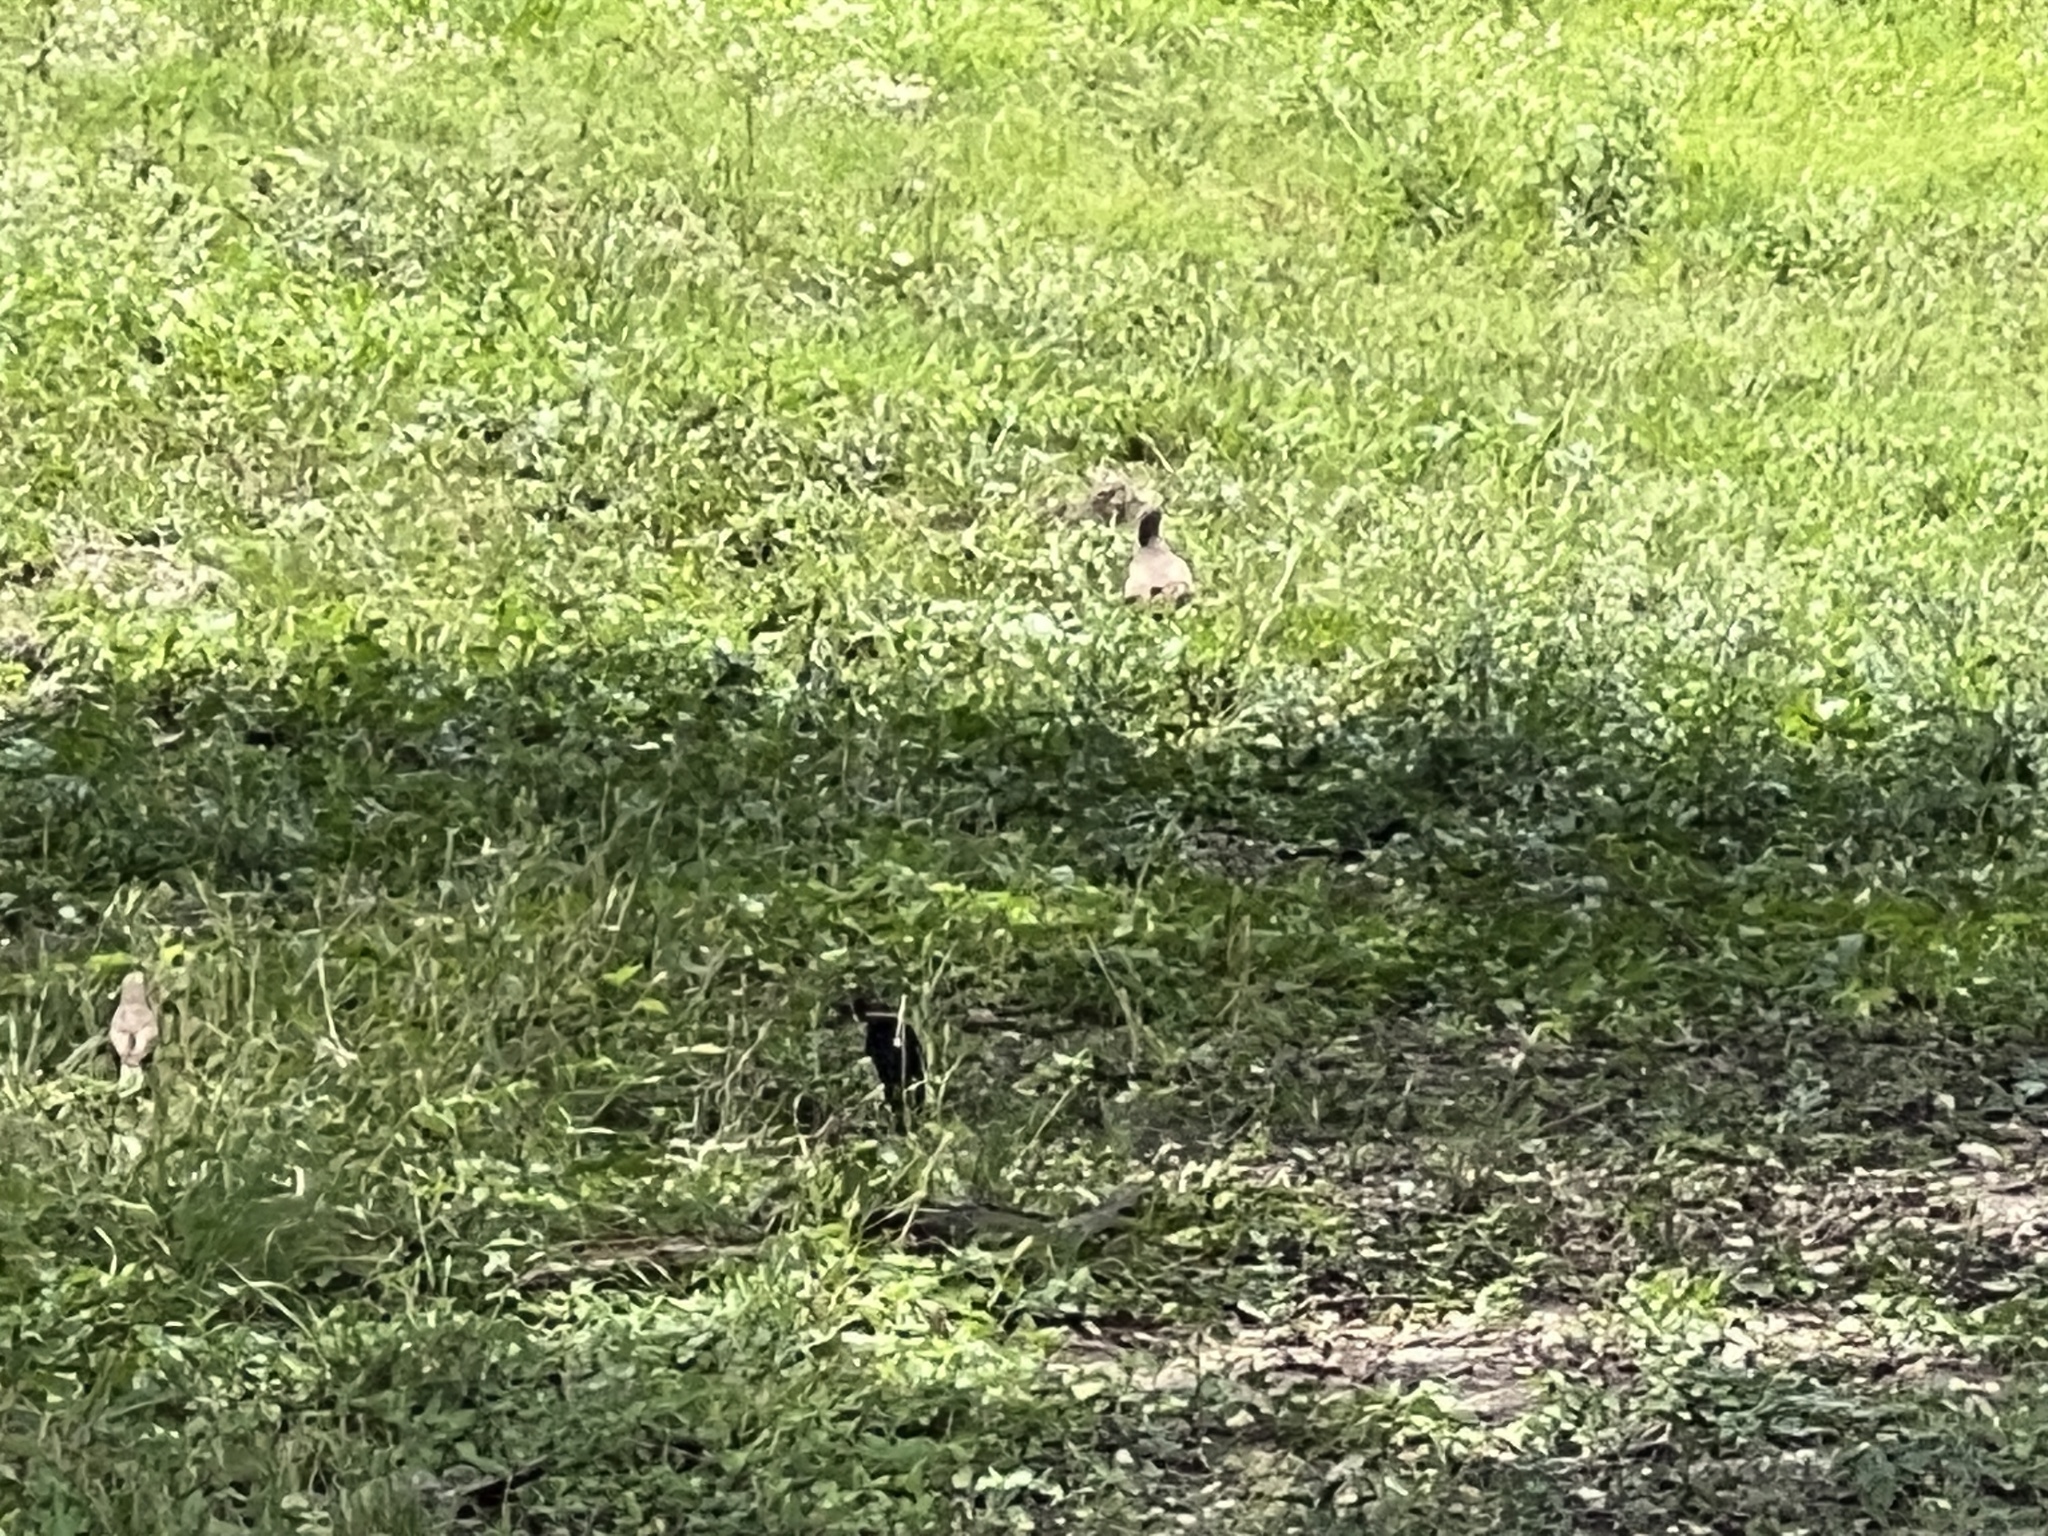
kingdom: Animalia
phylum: Chordata
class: Aves
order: Passeriformes
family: Icteridae
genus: Molothrus
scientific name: Molothrus ater
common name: Brown-headed cowbird
